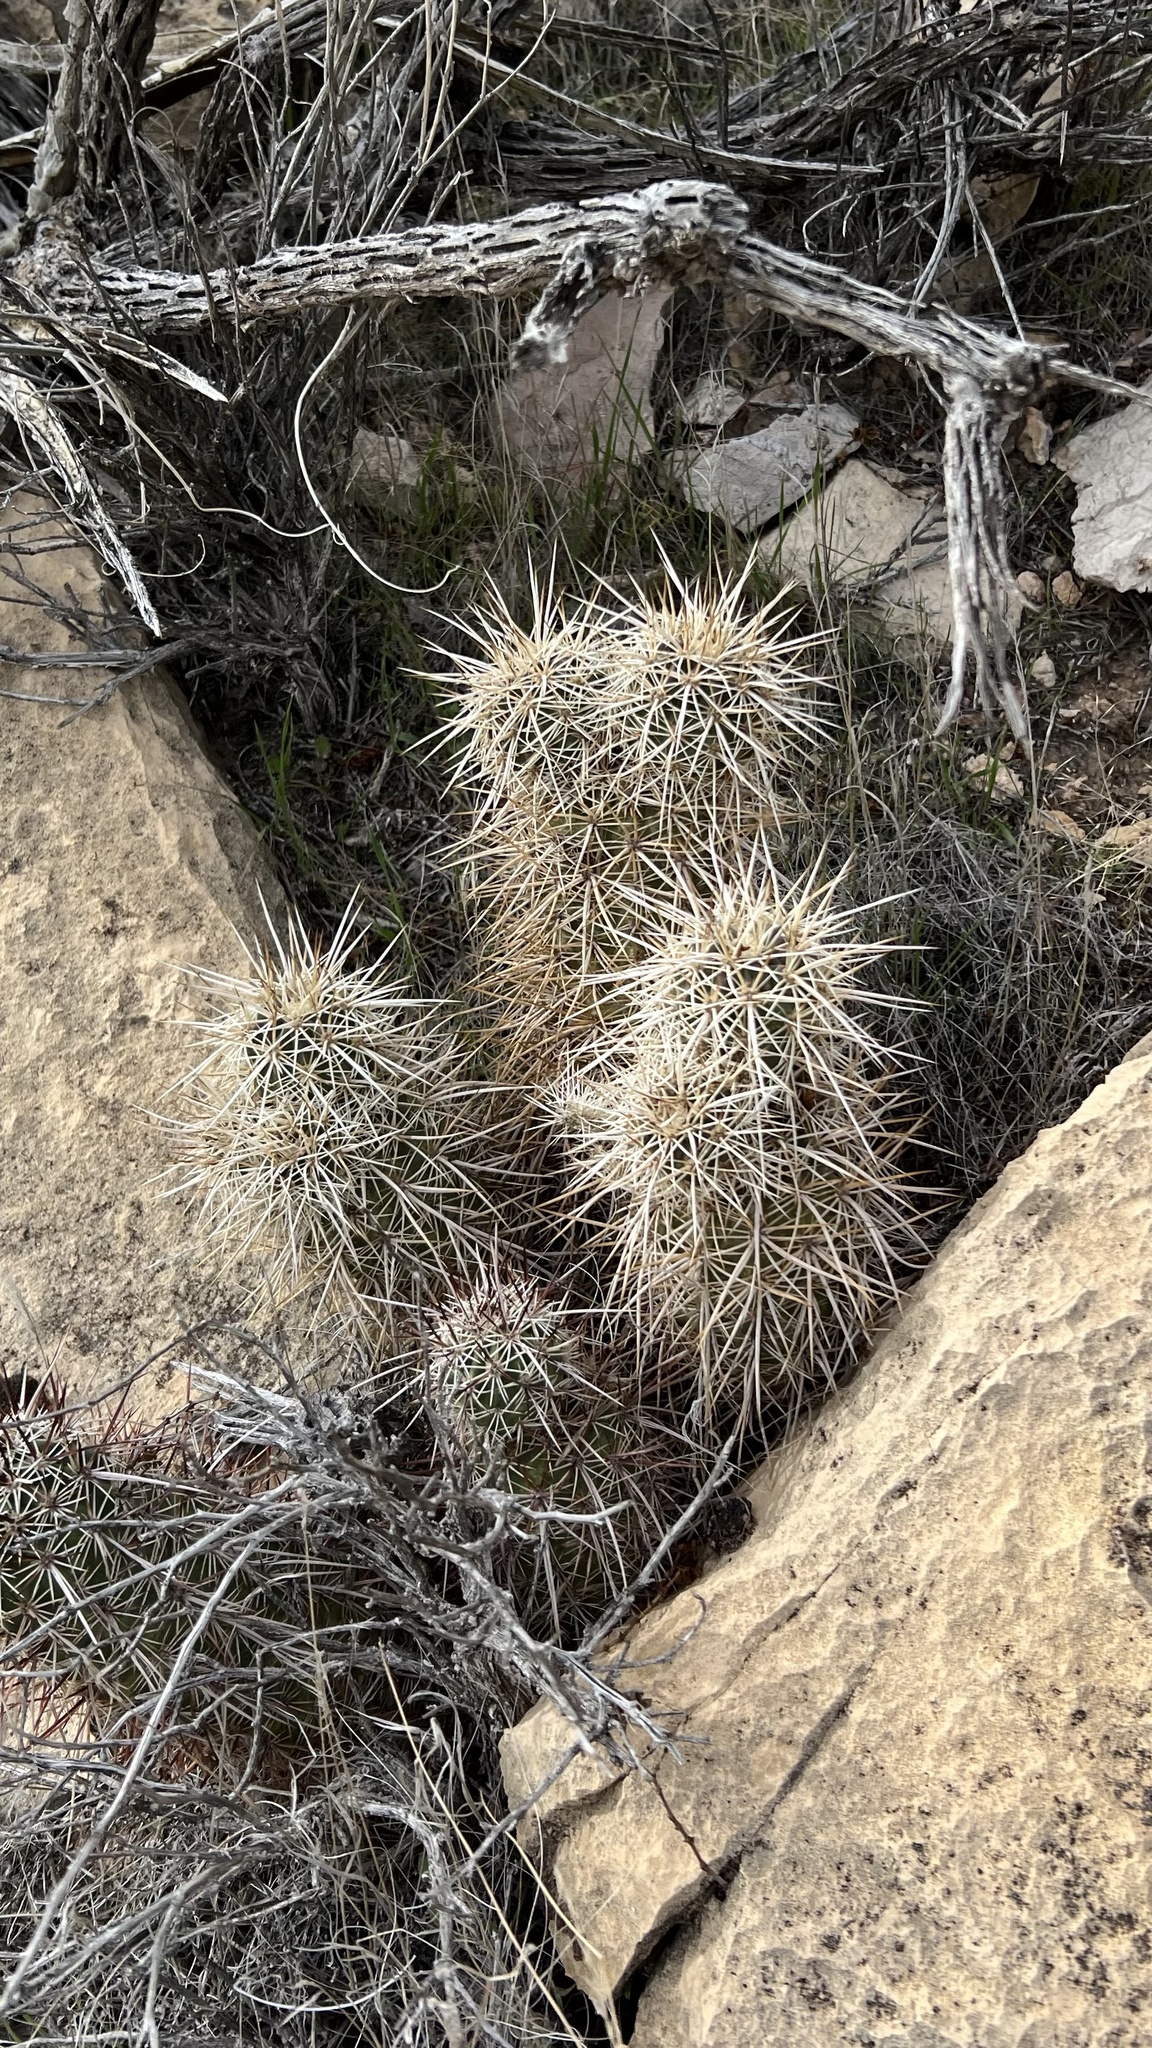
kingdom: Plantae
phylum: Tracheophyta
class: Magnoliopsida
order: Caryophyllales
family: Cactaceae
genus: Echinocereus
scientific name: Echinocereus engelmannii
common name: Engelmann's hedgehog cactus
